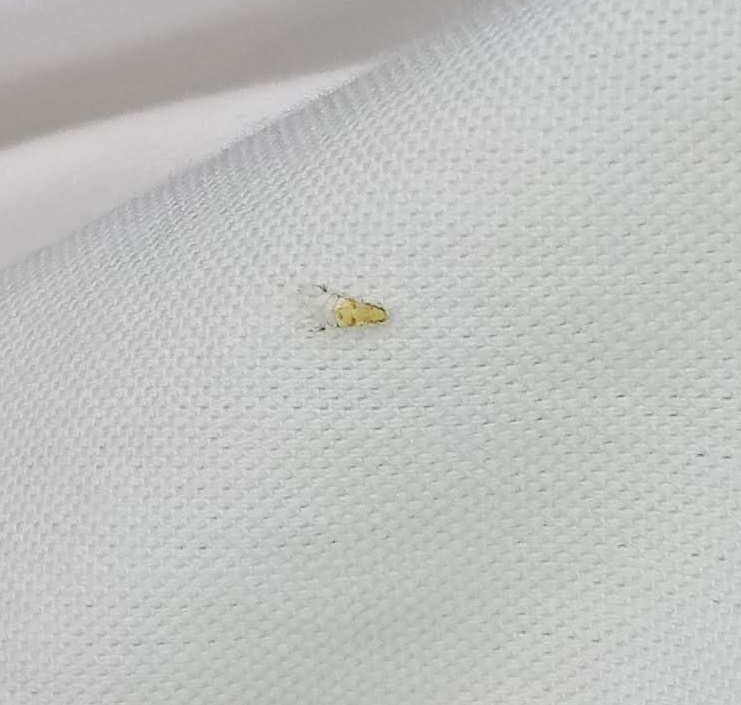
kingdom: Animalia
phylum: Arthropoda
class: Insecta
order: Hemiptera
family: Aphididae
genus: Monellia
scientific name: Monellia microsetosa
